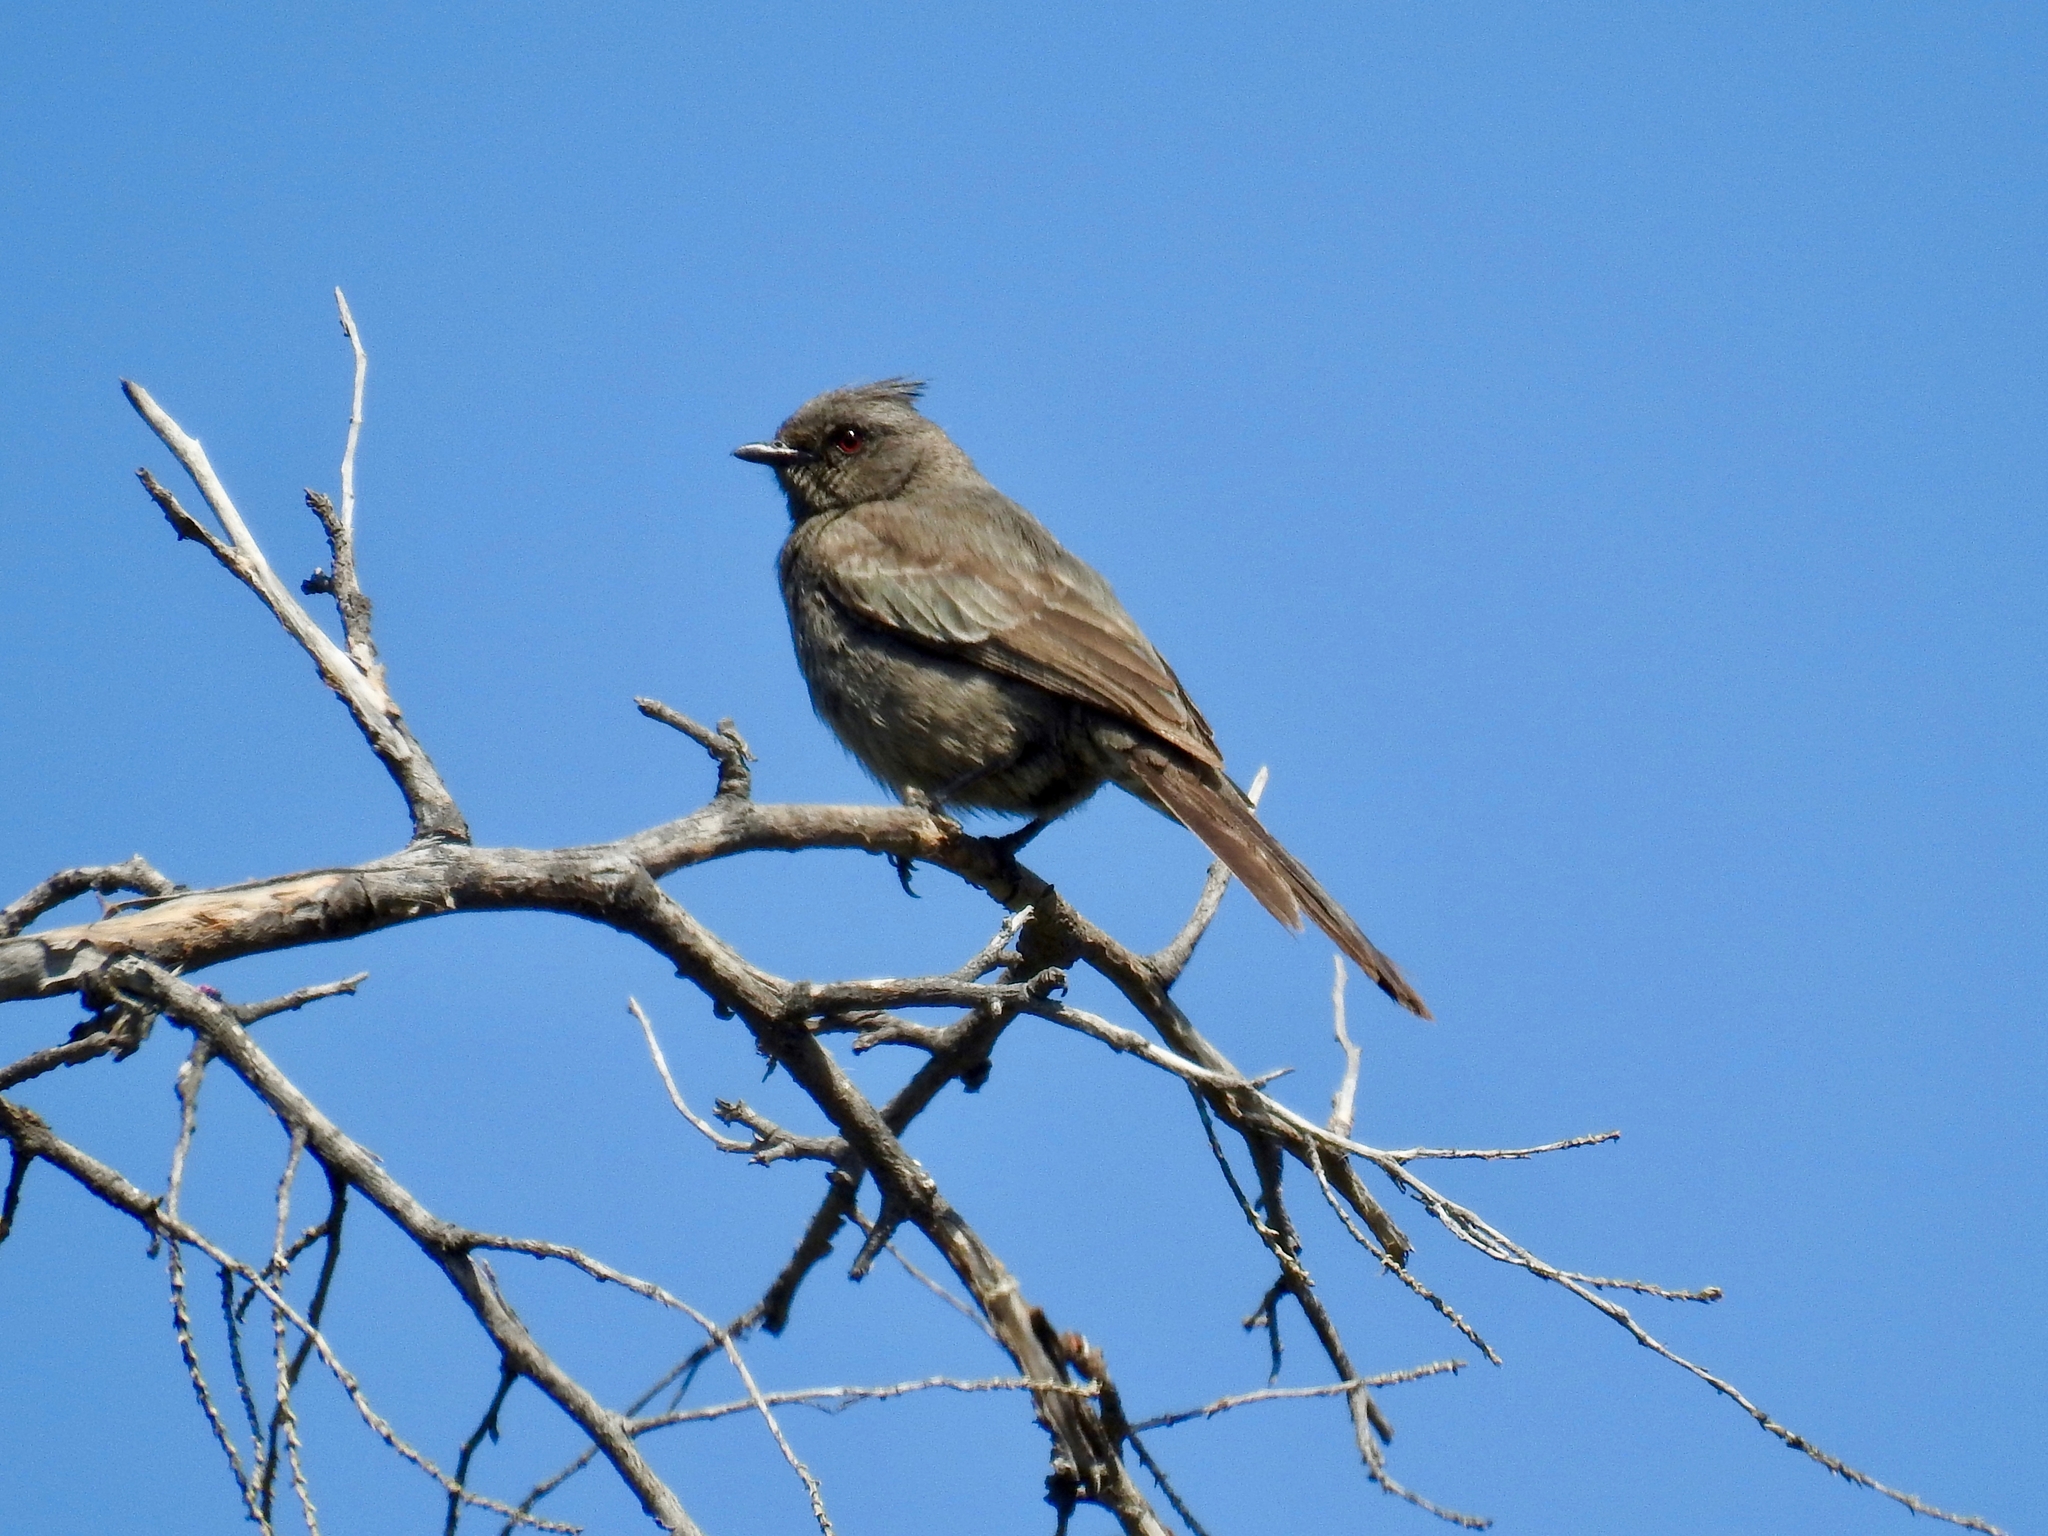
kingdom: Animalia
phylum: Chordata
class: Aves
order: Passeriformes
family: Ptilogonatidae
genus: Phainopepla
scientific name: Phainopepla nitens
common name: Phainopepla
